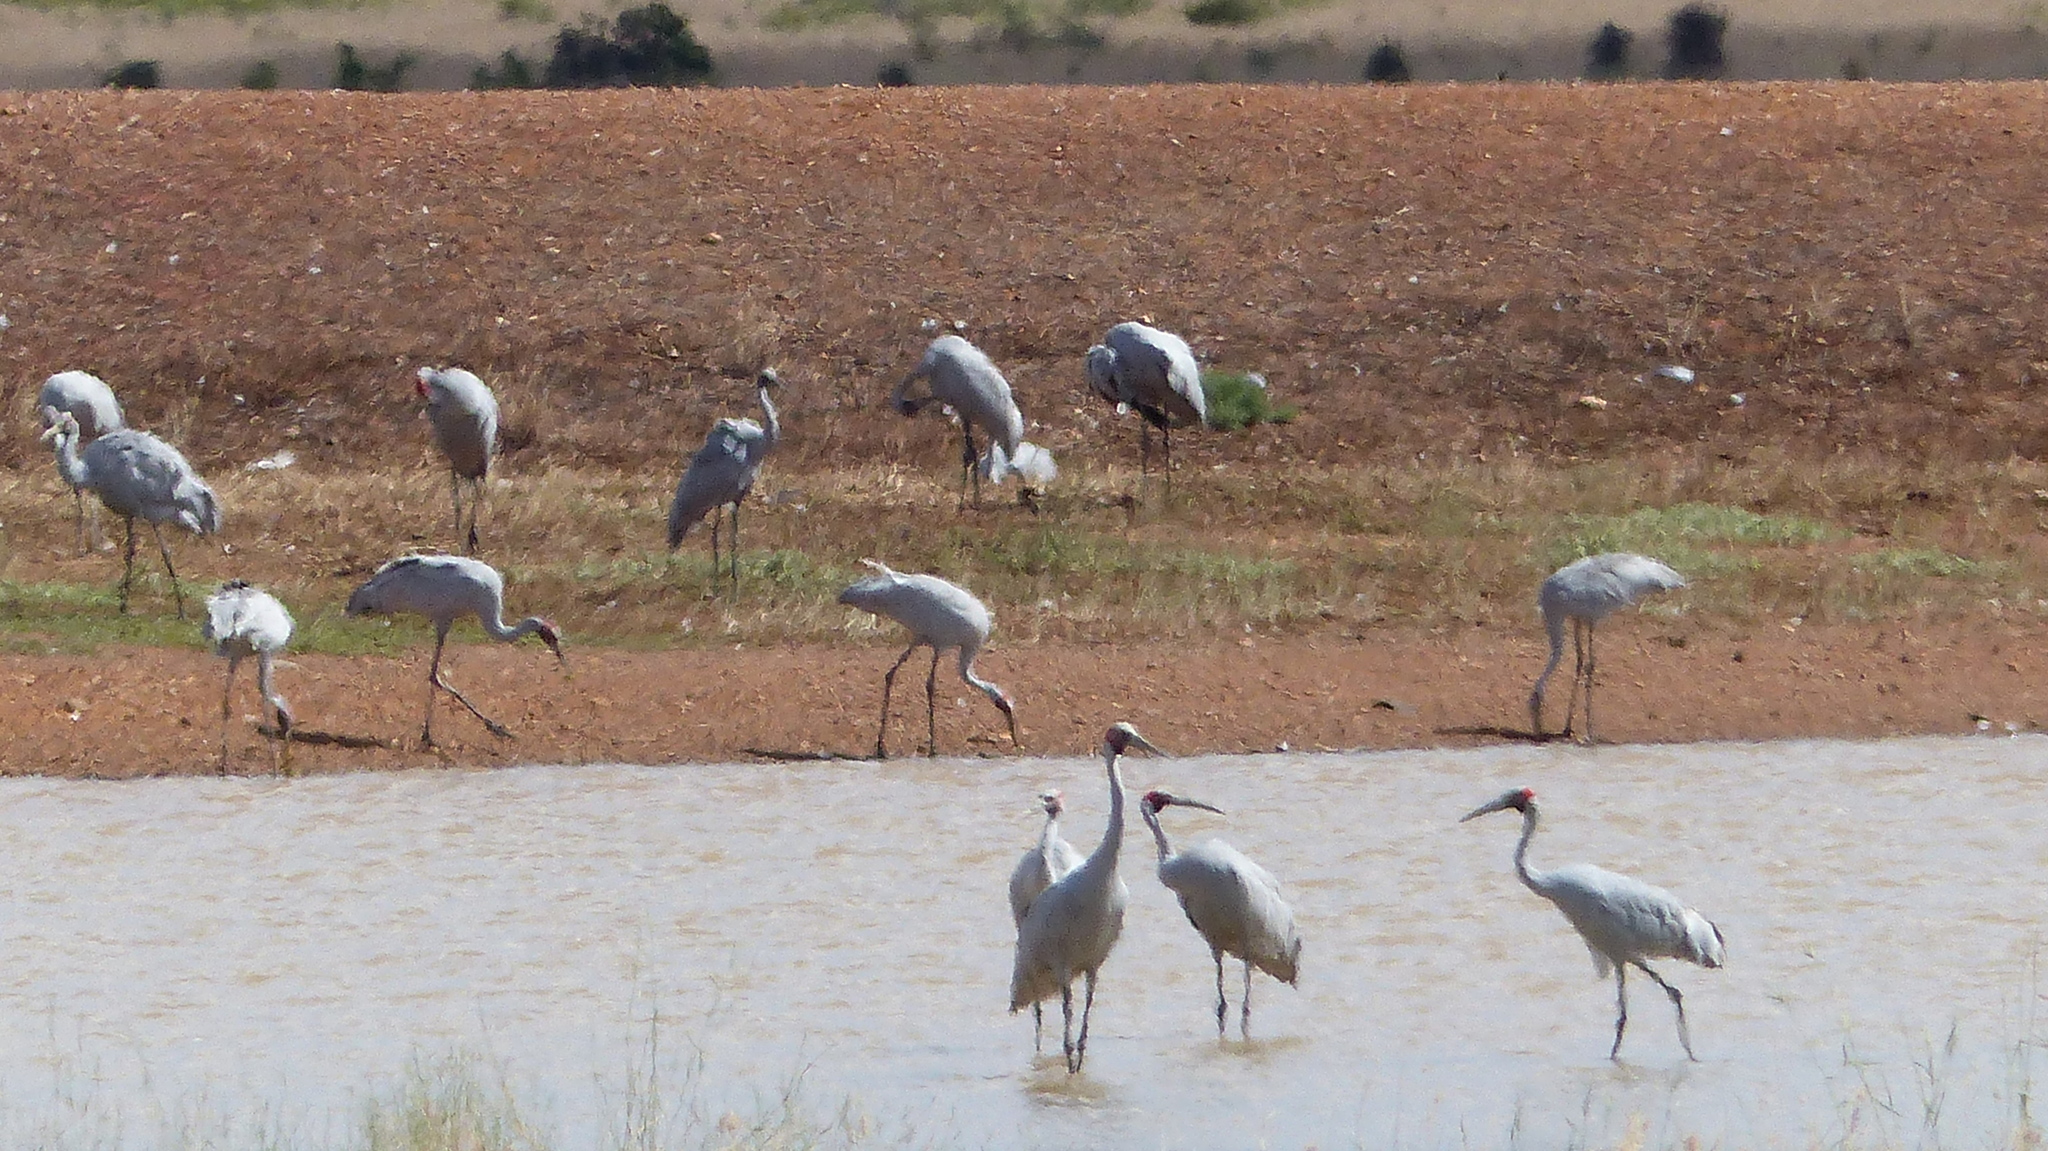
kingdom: Animalia
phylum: Chordata
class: Aves
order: Gruiformes
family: Gruidae
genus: Grus
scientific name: Grus rubicunda
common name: Brolga
